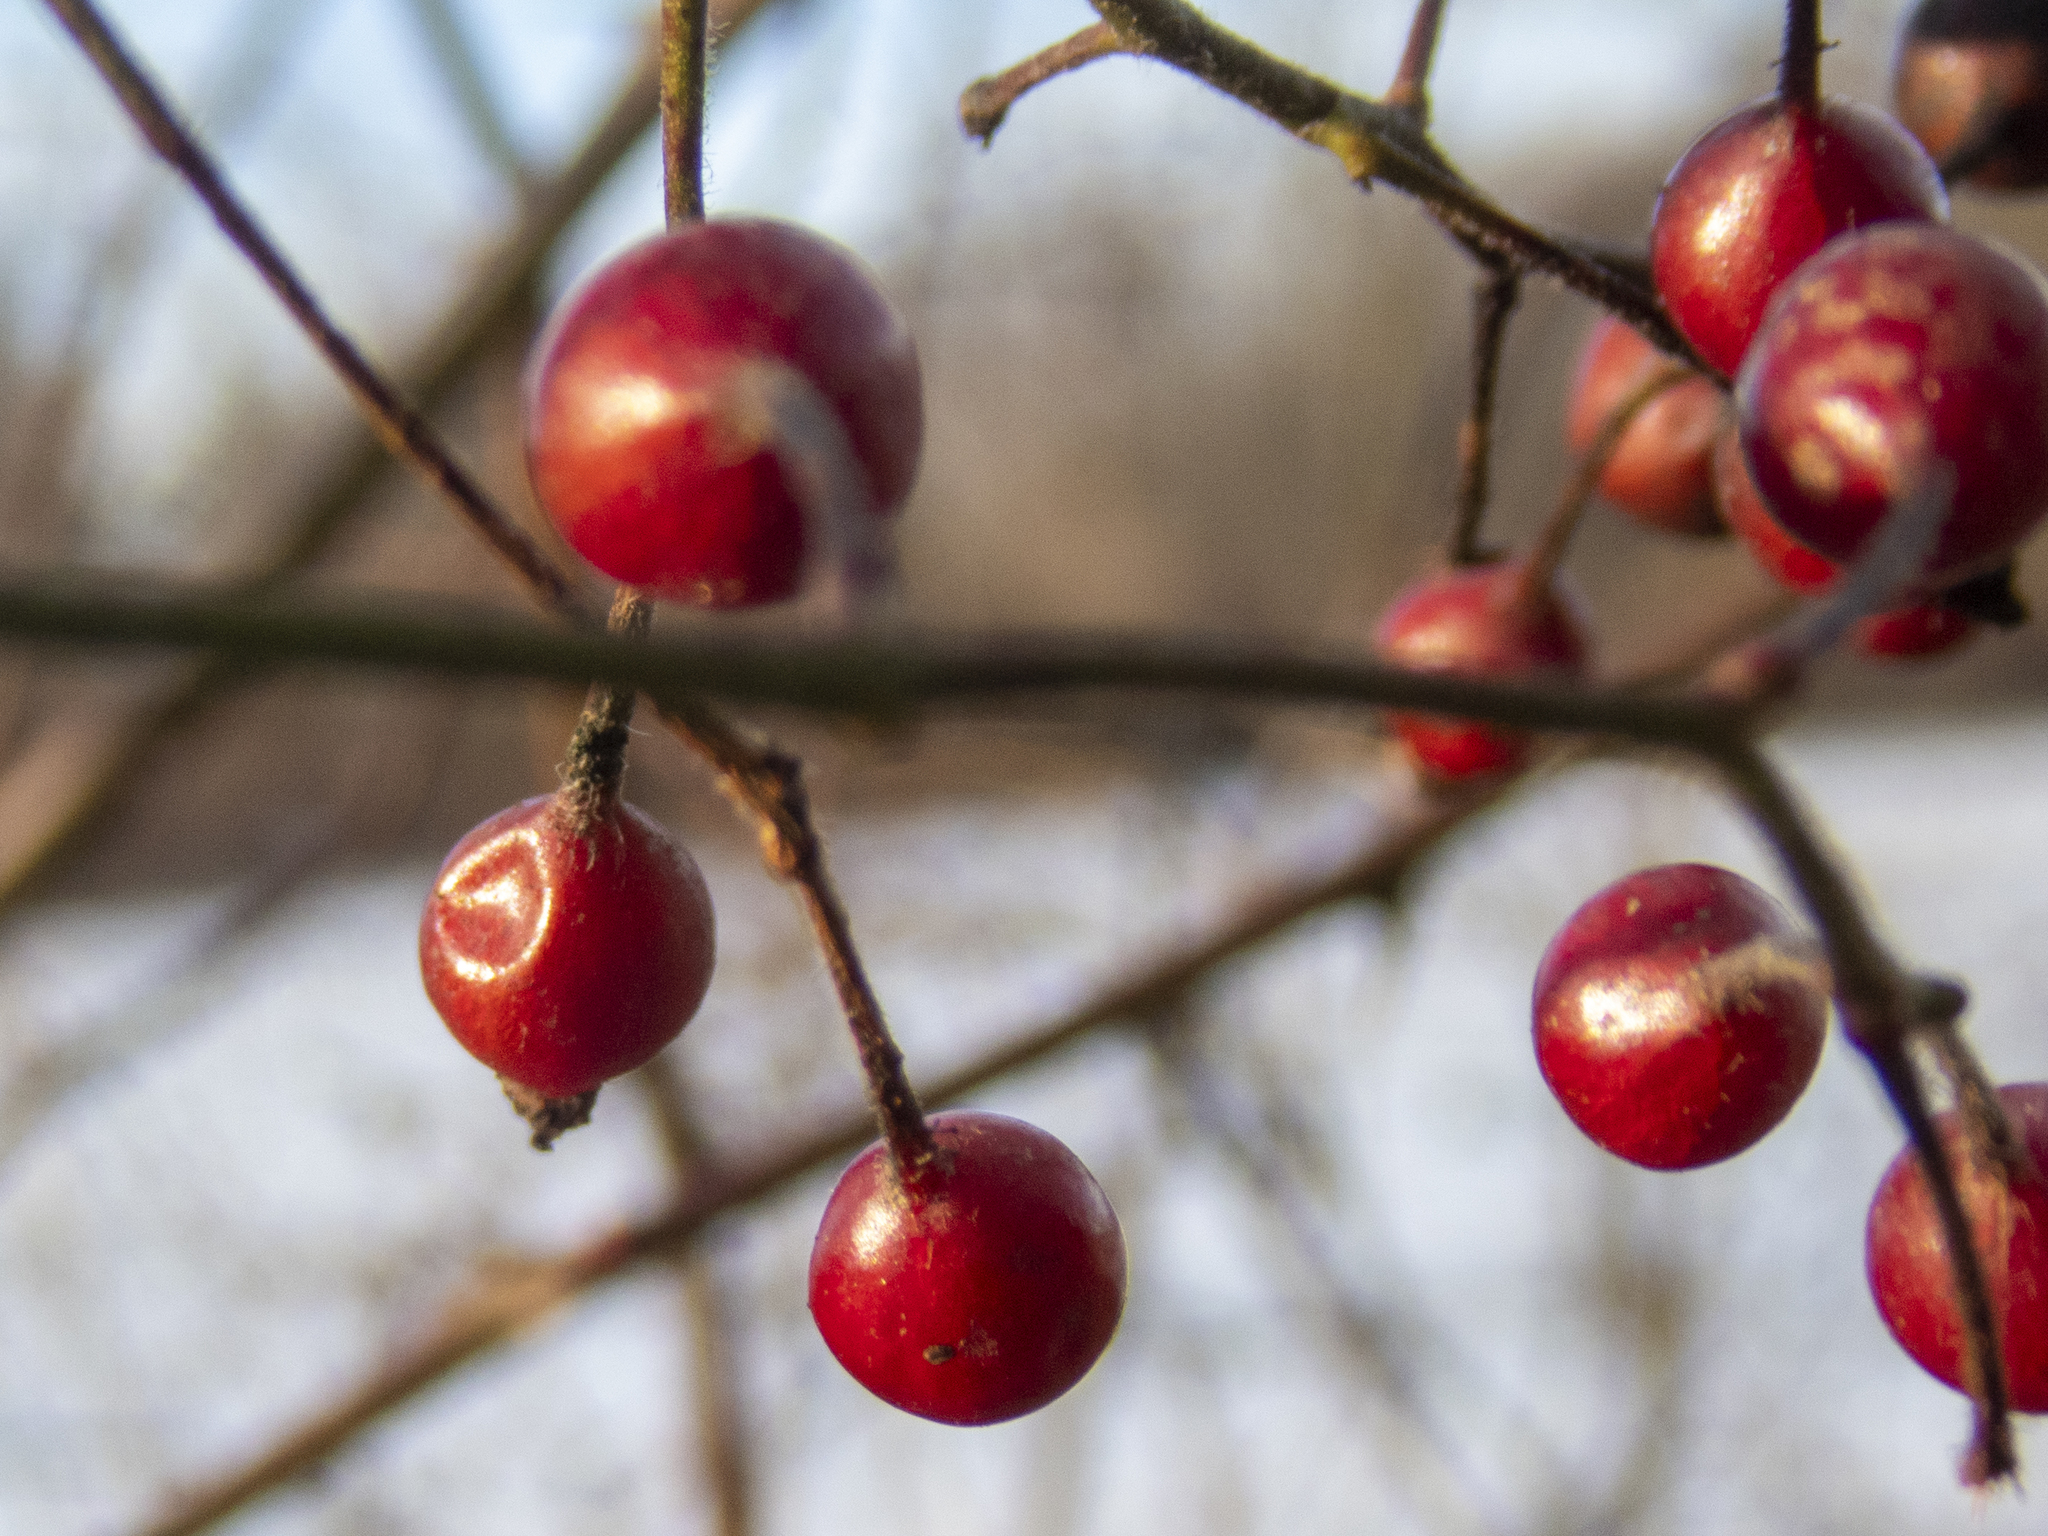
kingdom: Plantae
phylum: Tracheophyta
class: Magnoliopsida
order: Rosales
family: Rosaceae
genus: Rosa
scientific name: Rosa multiflora
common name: Multiflora rose
